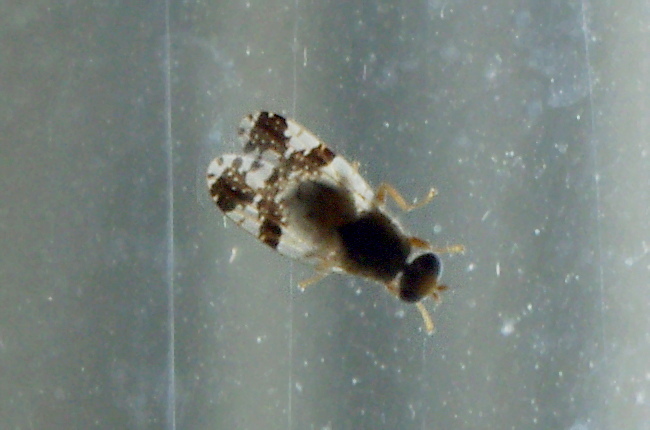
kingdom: Animalia
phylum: Arthropoda
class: Insecta
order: Diptera
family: Tephritidae
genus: Tephritis
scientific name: Tephritis bardanae
